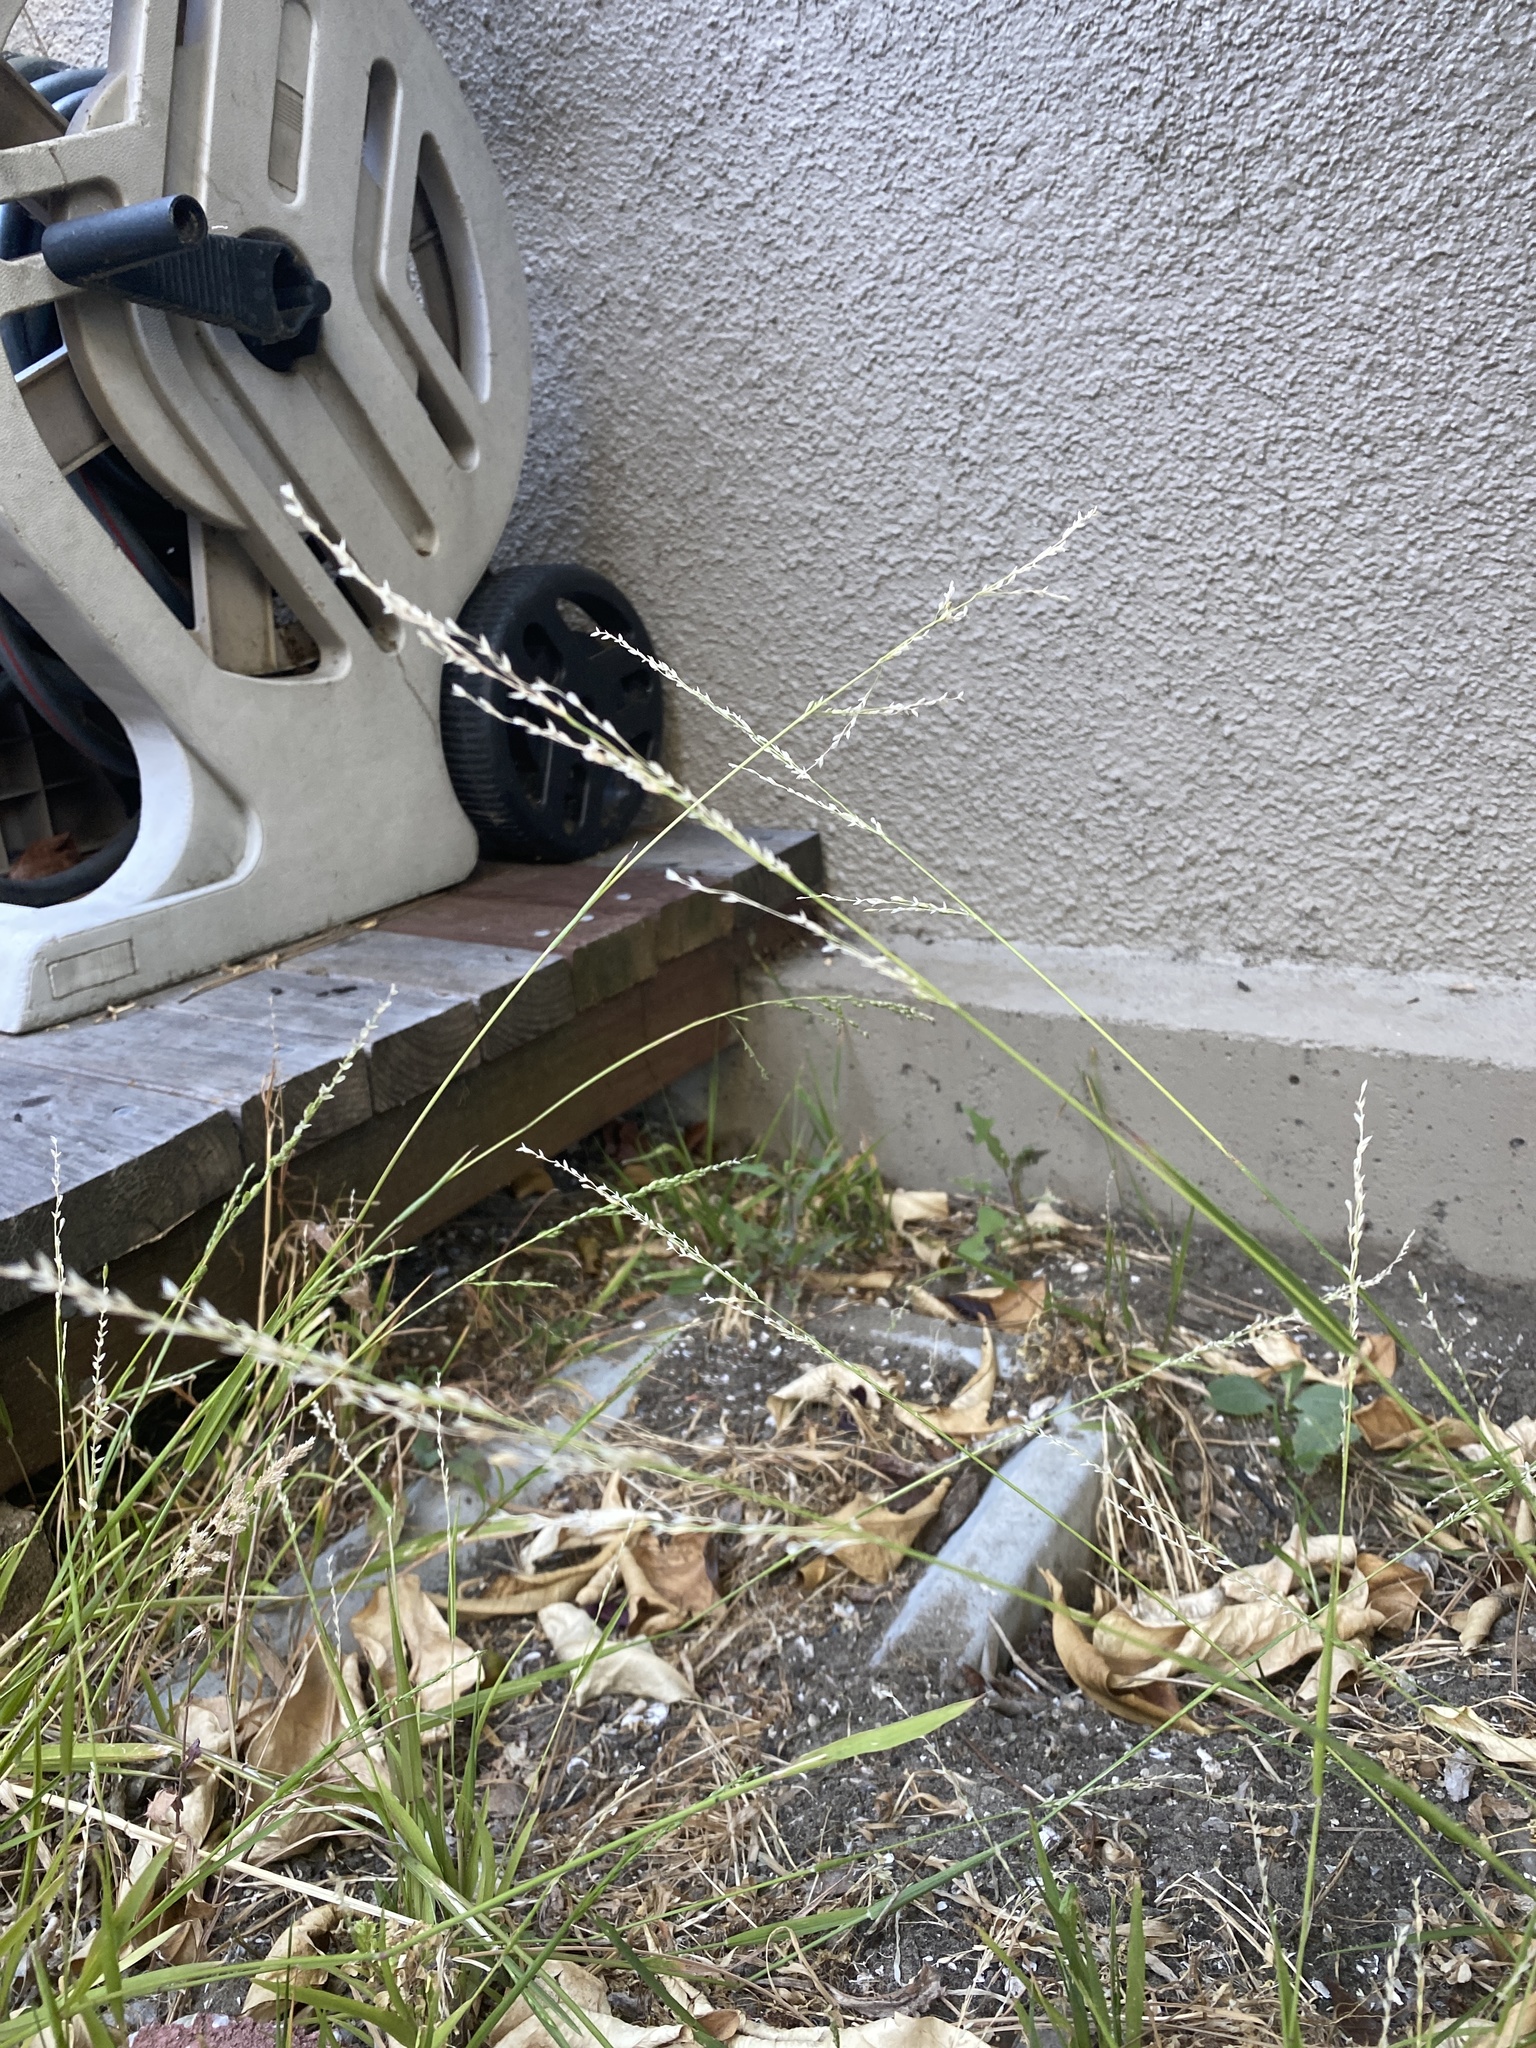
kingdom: Plantae
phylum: Tracheophyta
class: Liliopsida
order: Poales
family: Poaceae
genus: Ehrharta
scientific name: Ehrharta erecta
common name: Panic veldtgrass
